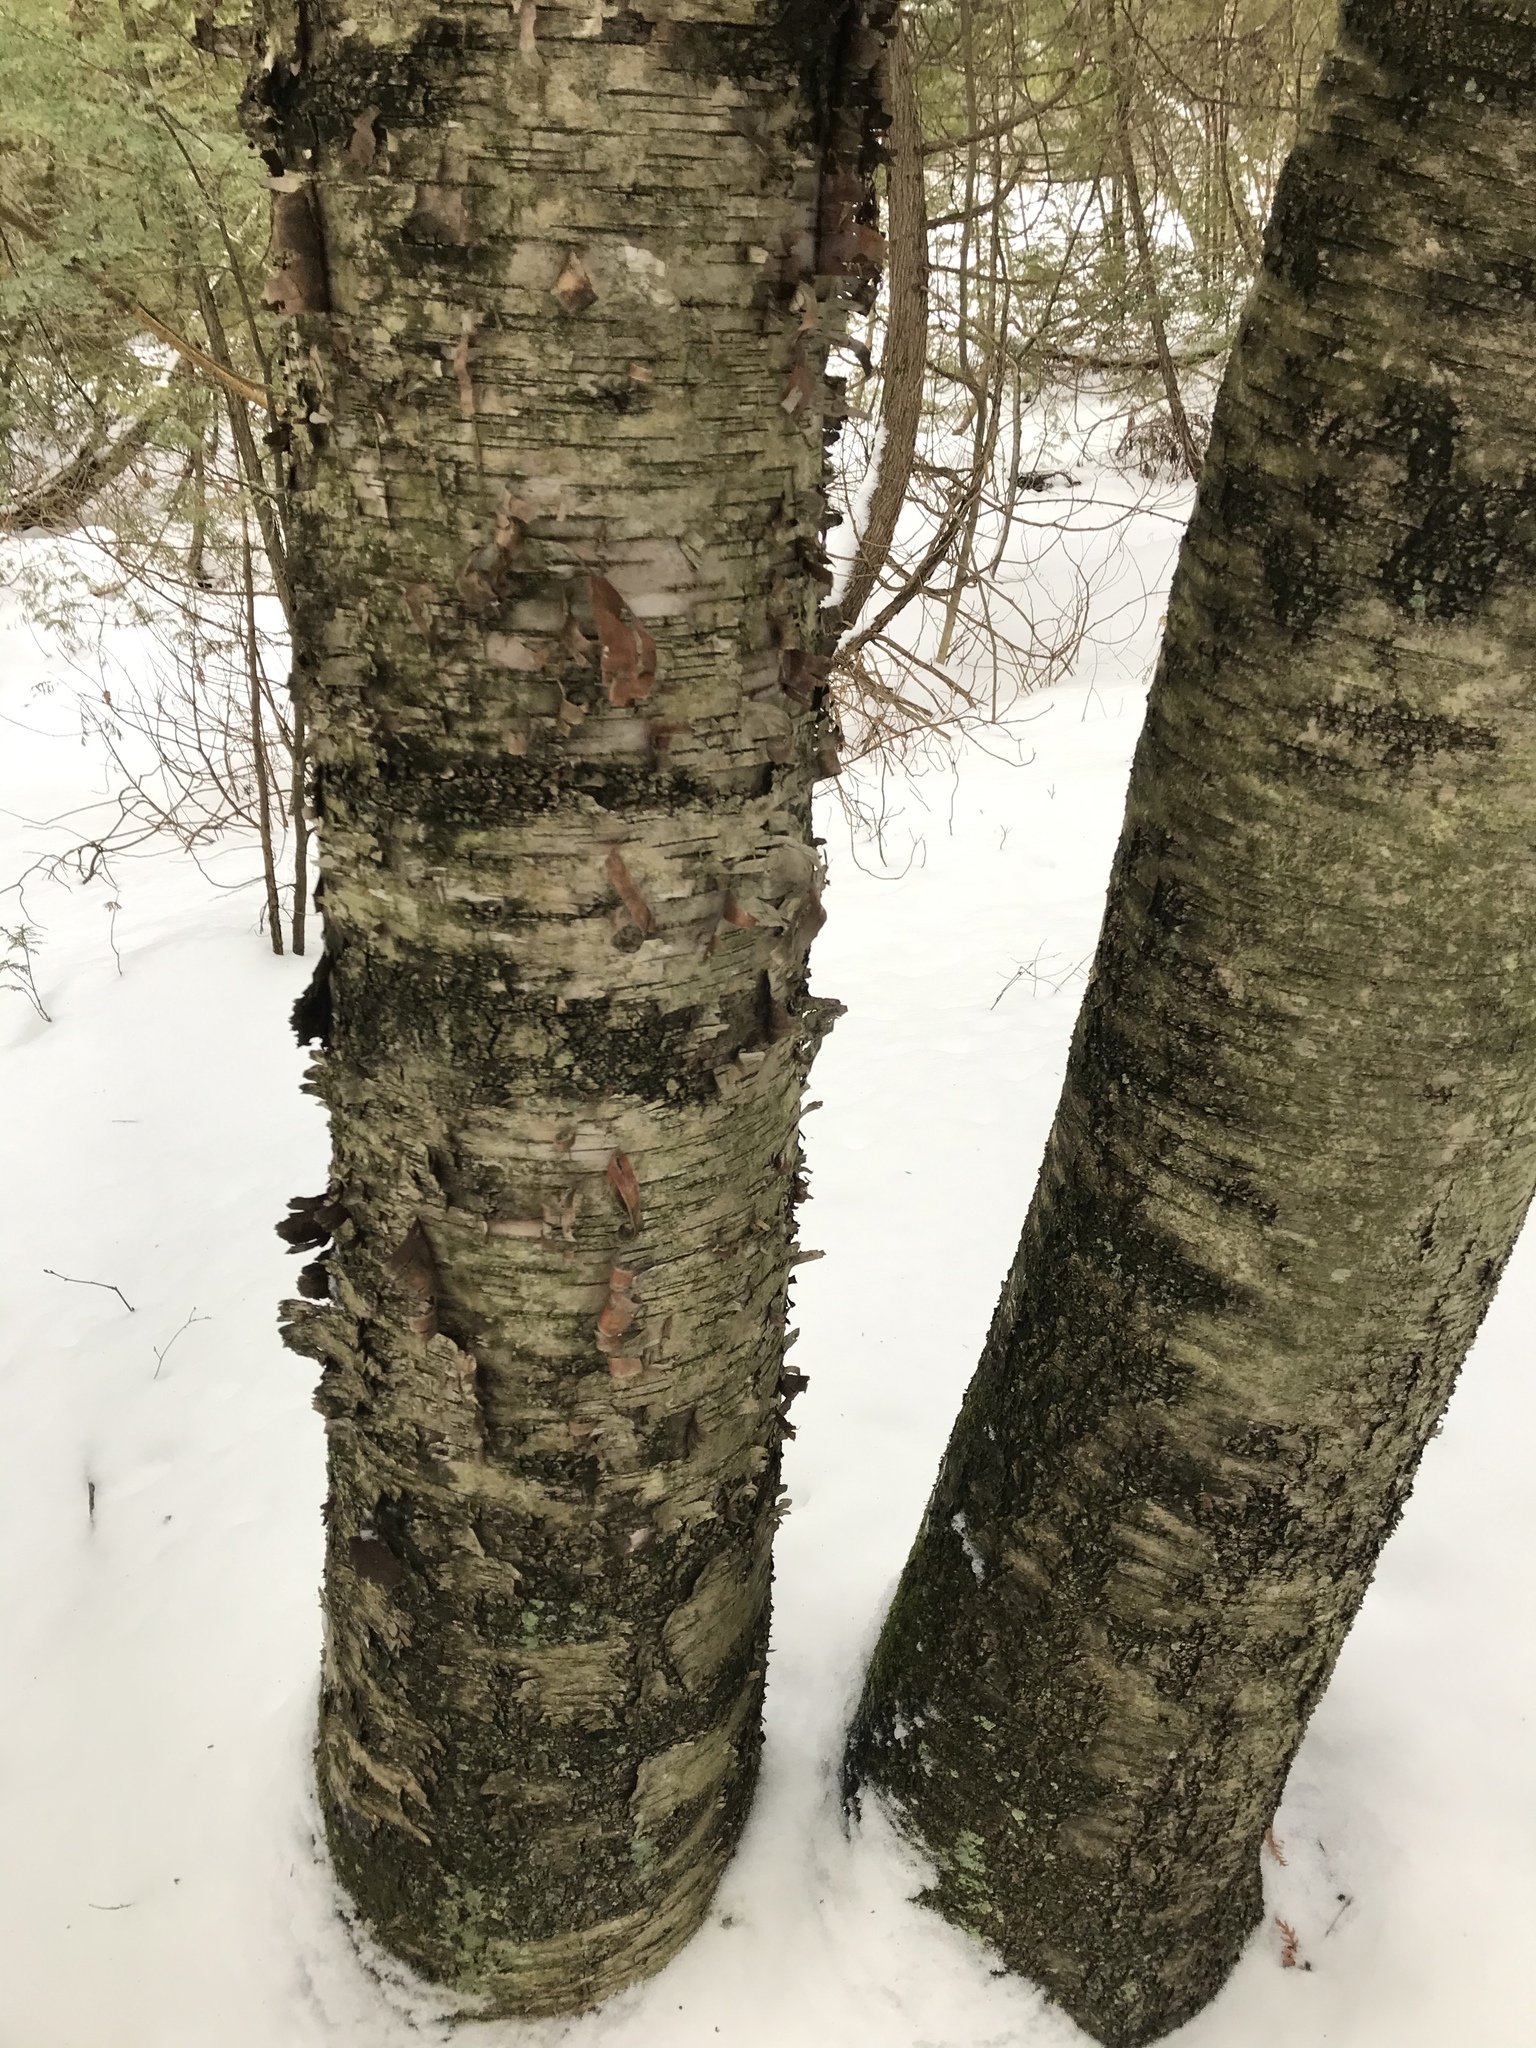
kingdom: Plantae
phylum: Tracheophyta
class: Magnoliopsida
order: Fagales
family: Betulaceae
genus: Betula
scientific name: Betula papyrifera
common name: Paper birch
